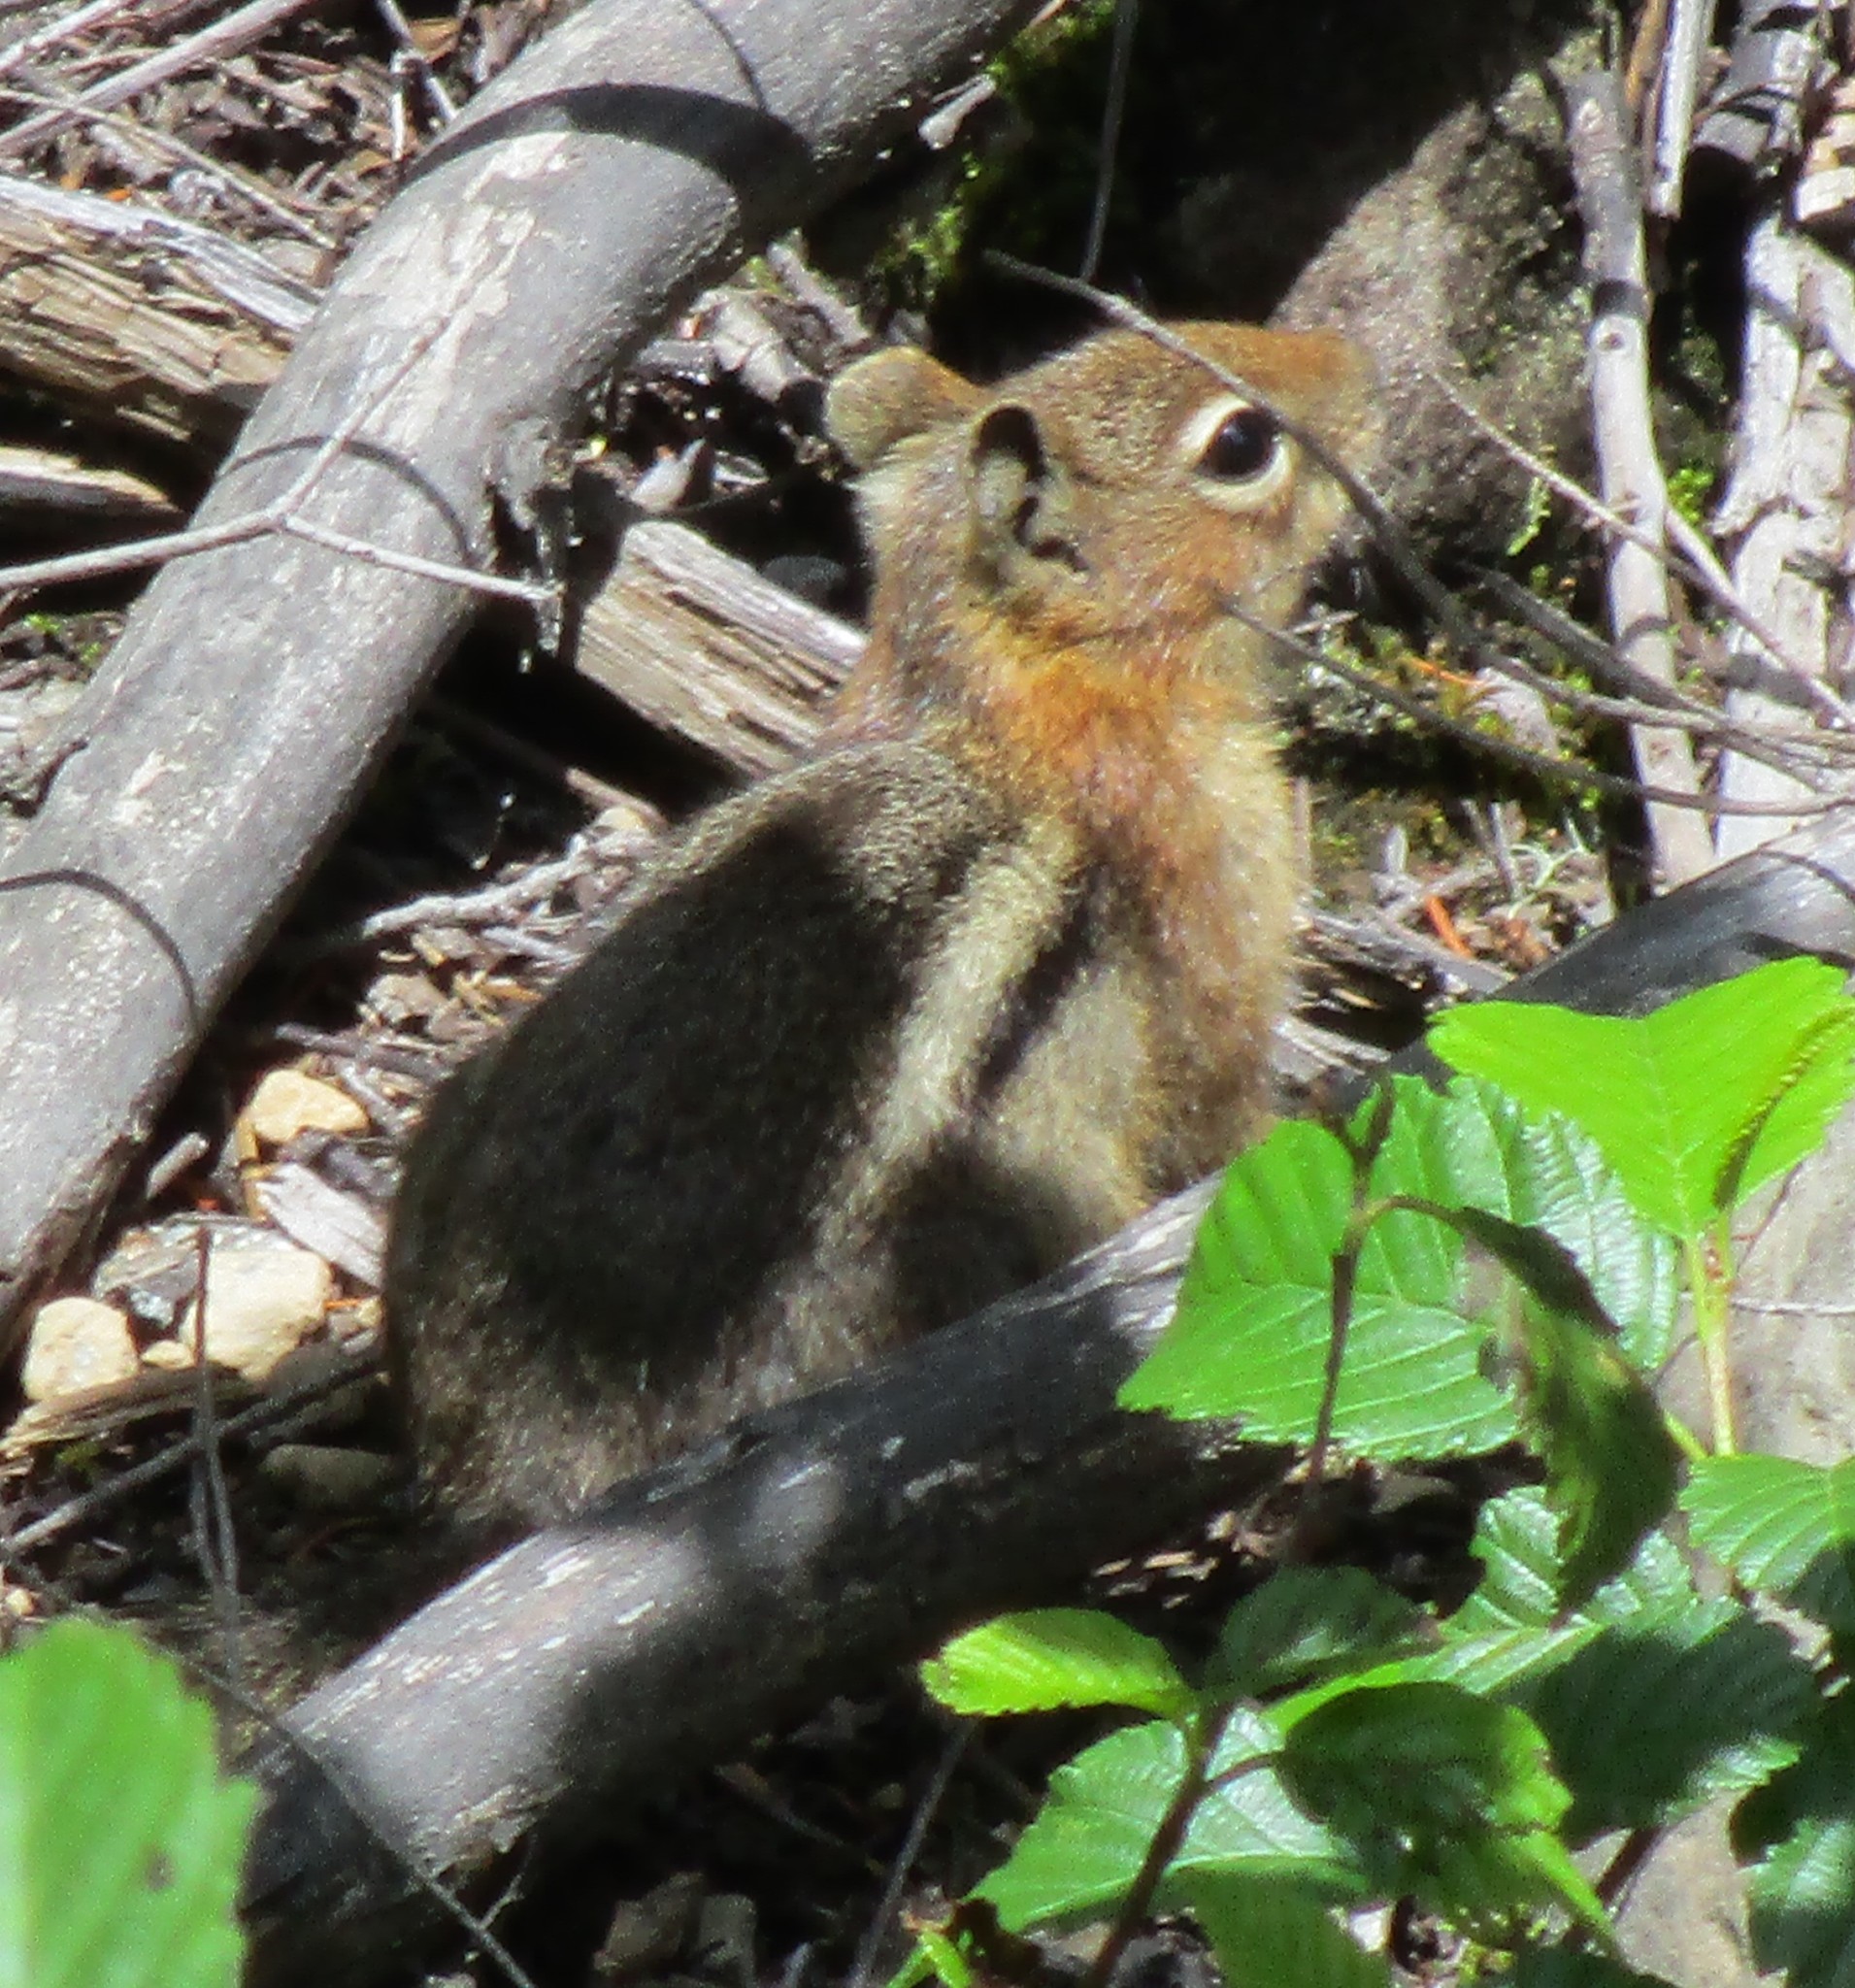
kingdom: Animalia
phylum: Chordata
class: Mammalia
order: Rodentia
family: Sciuridae
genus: Callospermophilus
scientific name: Callospermophilus saturatus
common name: Cascade golden-mantled ground squirrel
